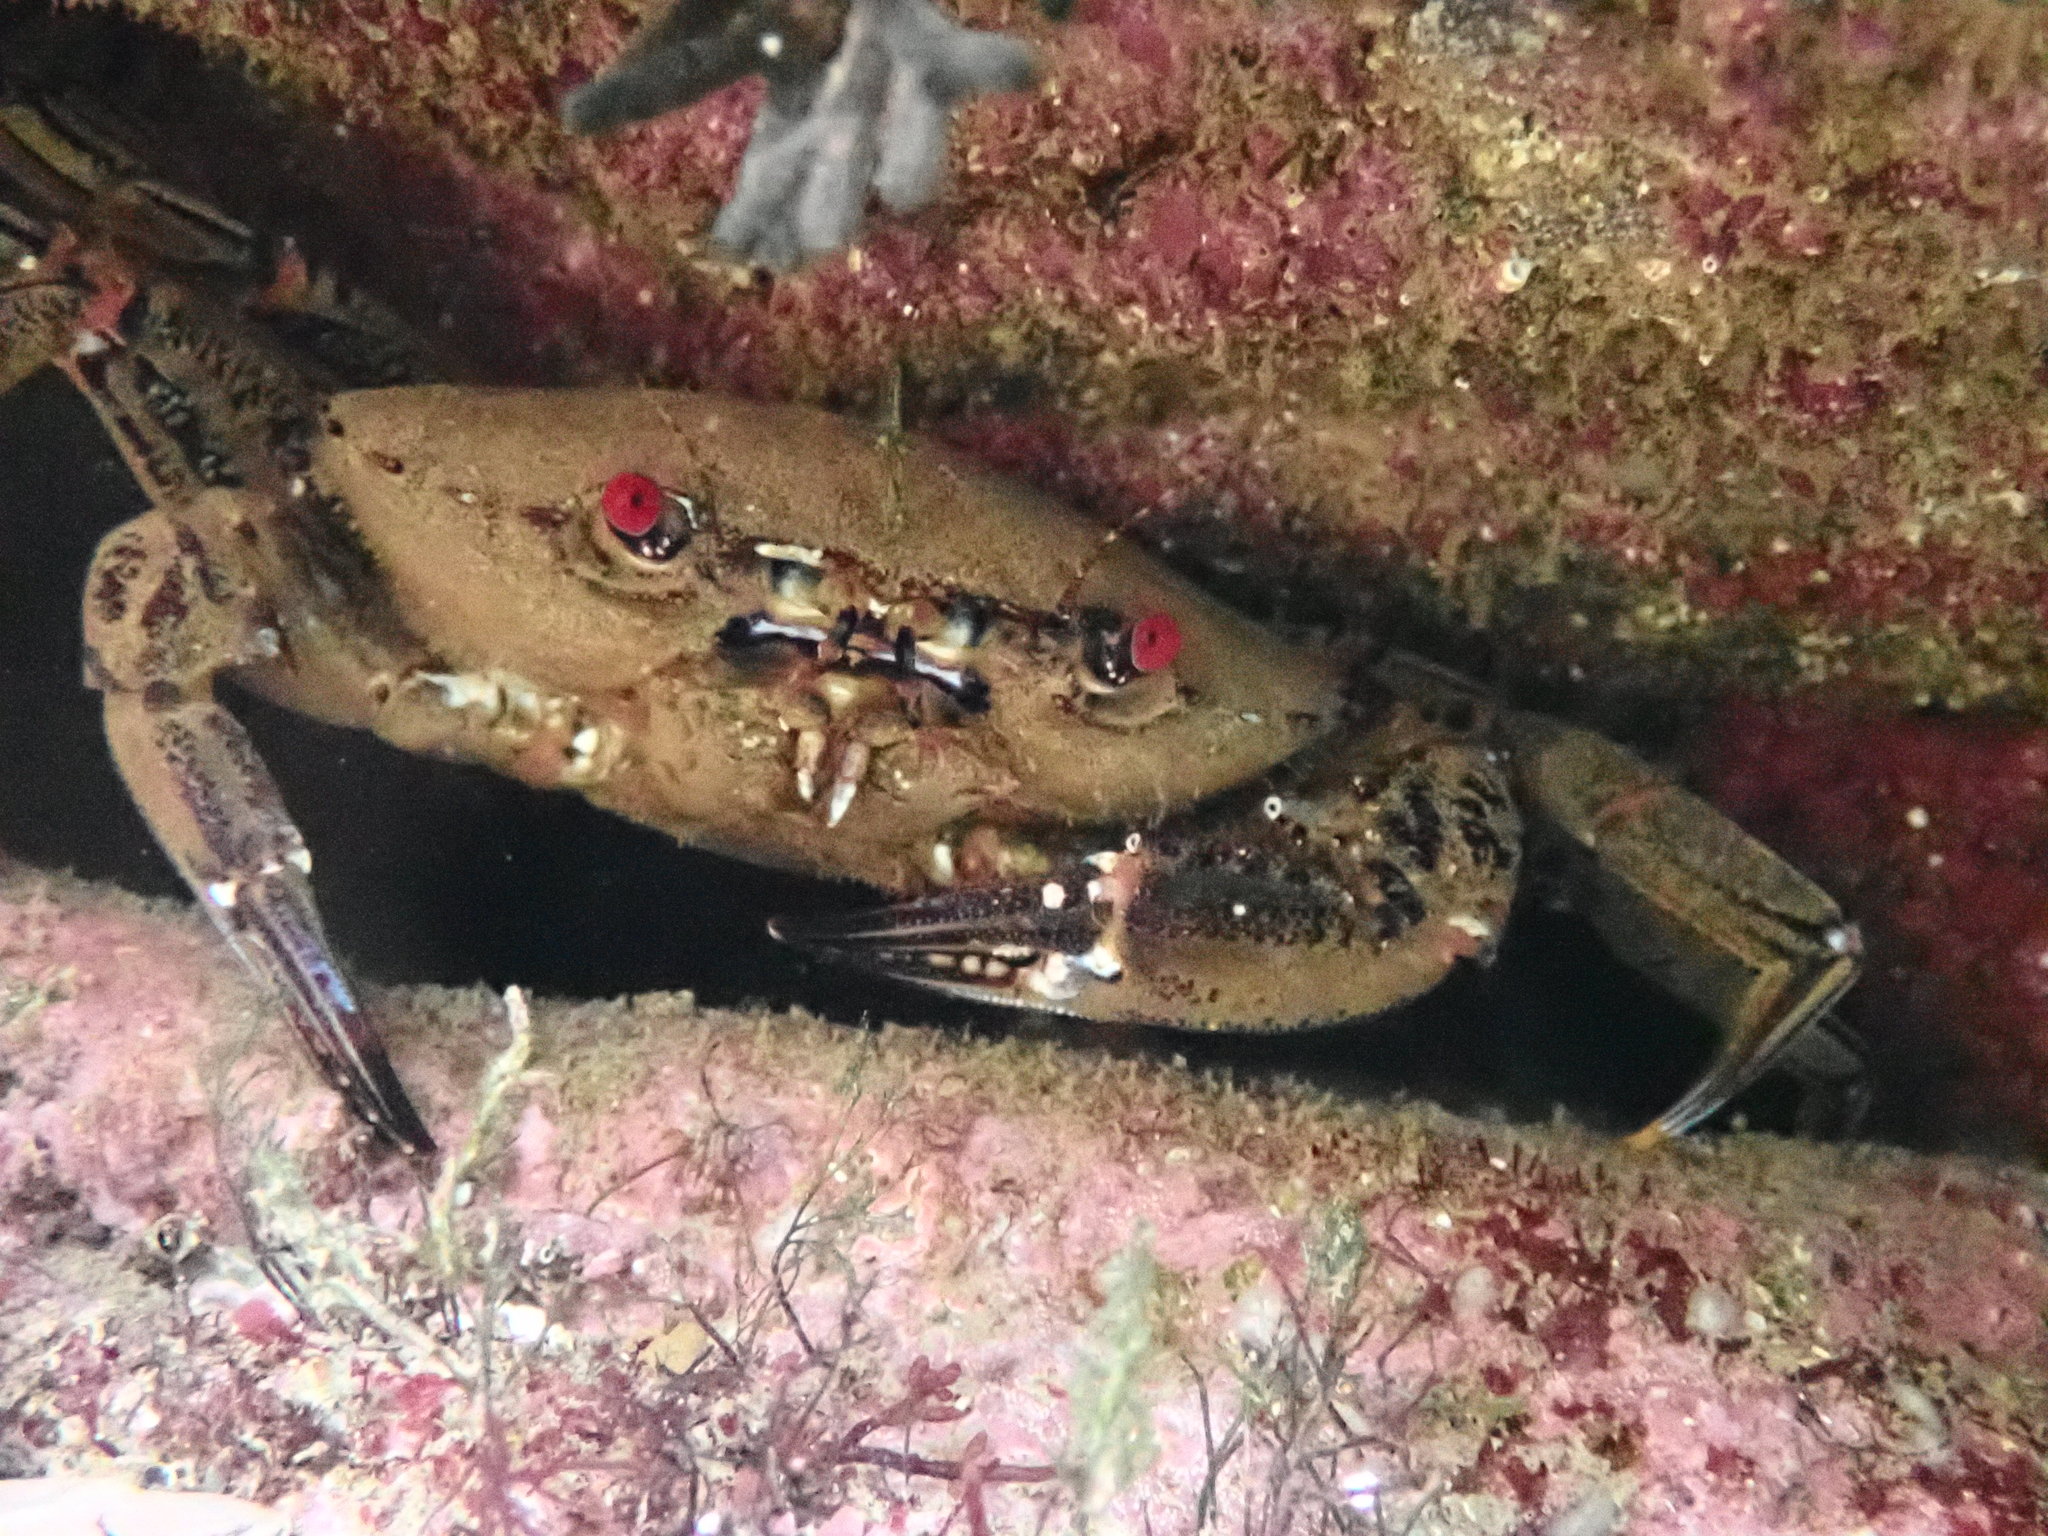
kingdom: Animalia
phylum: Arthropoda
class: Malacostraca
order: Decapoda
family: Polybiidae
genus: Necora
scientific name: Necora puber
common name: Velvet swimming crab
